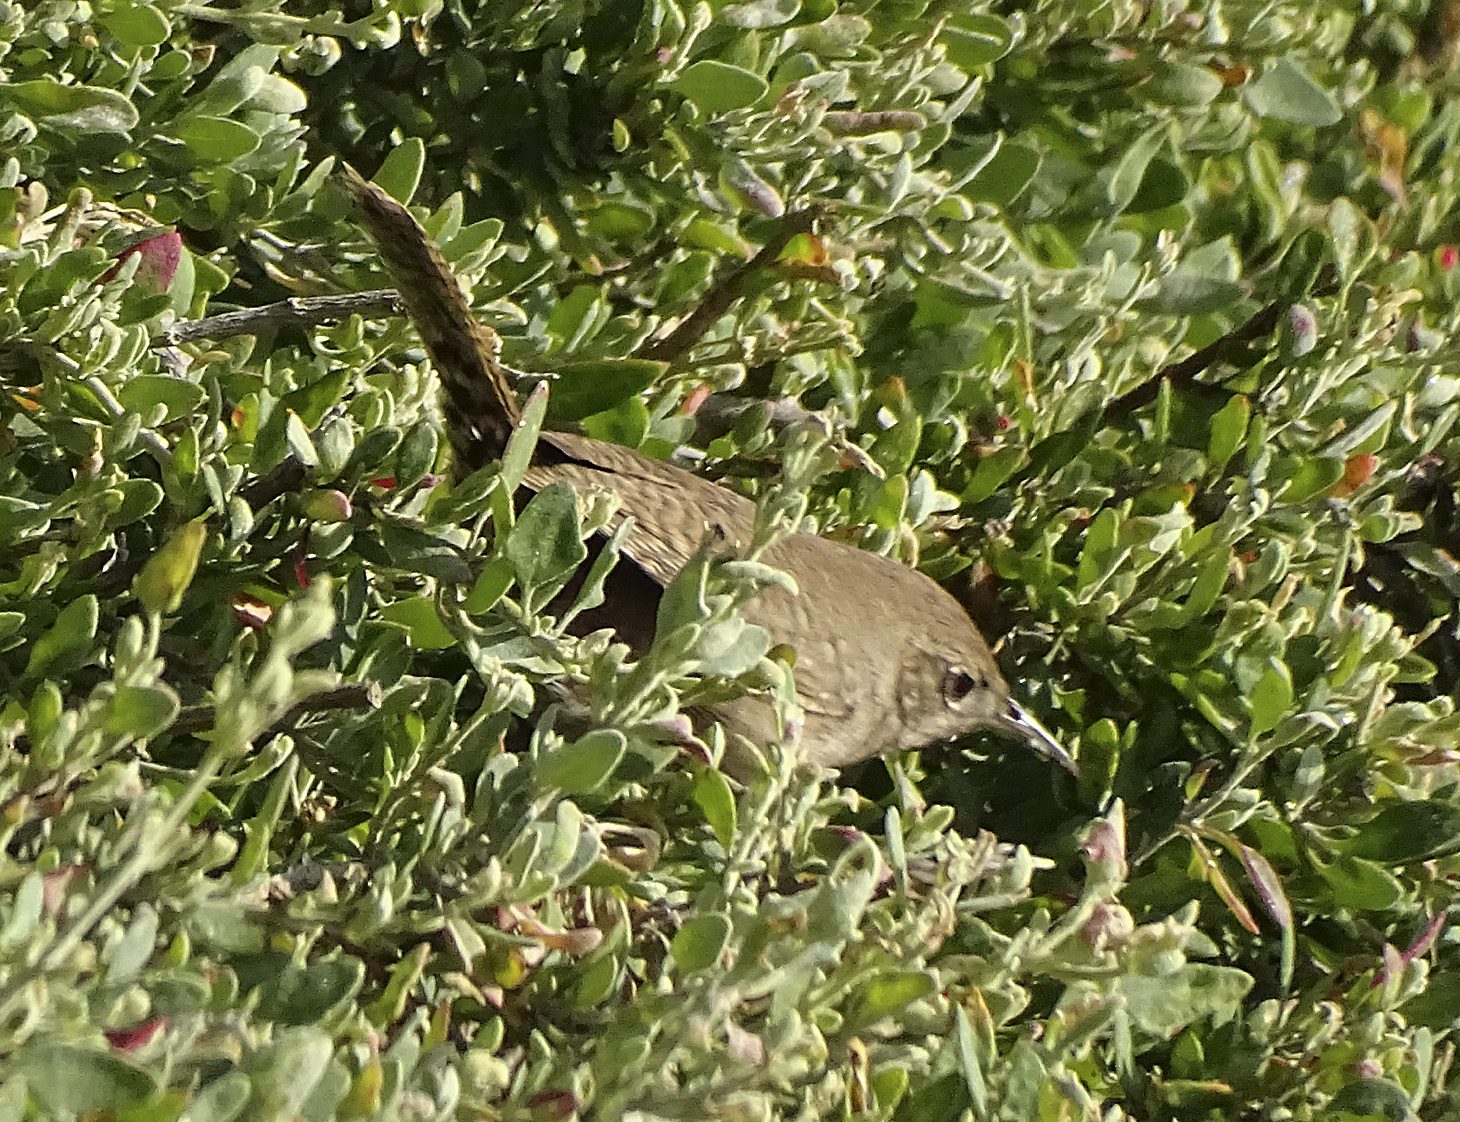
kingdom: Animalia
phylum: Chordata
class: Aves
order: Passeriformes
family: Troglodytidae
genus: Troglodytes
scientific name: Troglodytes aedon
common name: House wren
